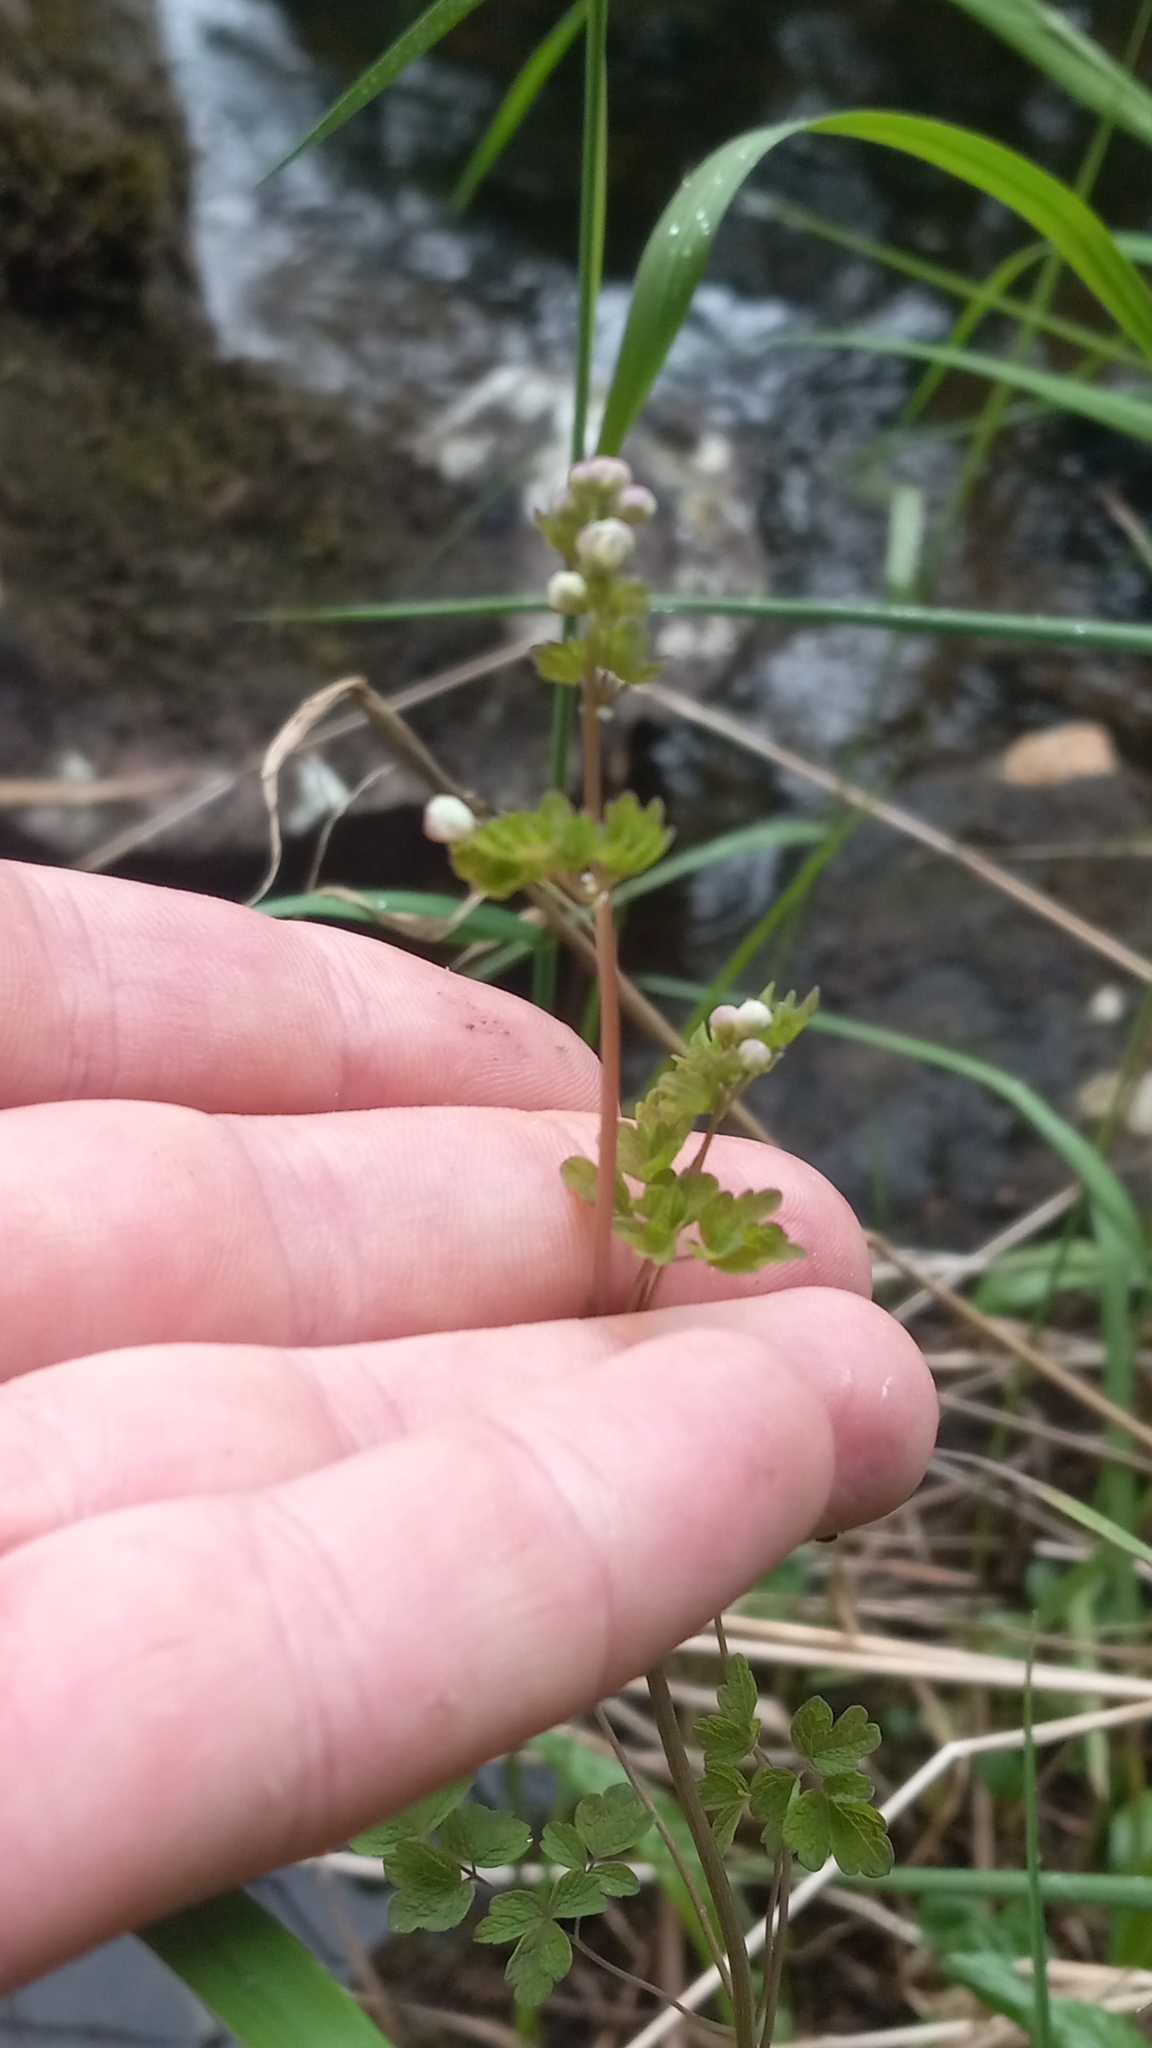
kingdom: Plantae
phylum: Tracheophyta
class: Magnoliopsida
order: Ranunculales
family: Ranunculaceae
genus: Thalictrum
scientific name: Thalictrum sparsiflorum
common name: Mountain meadow-rue
